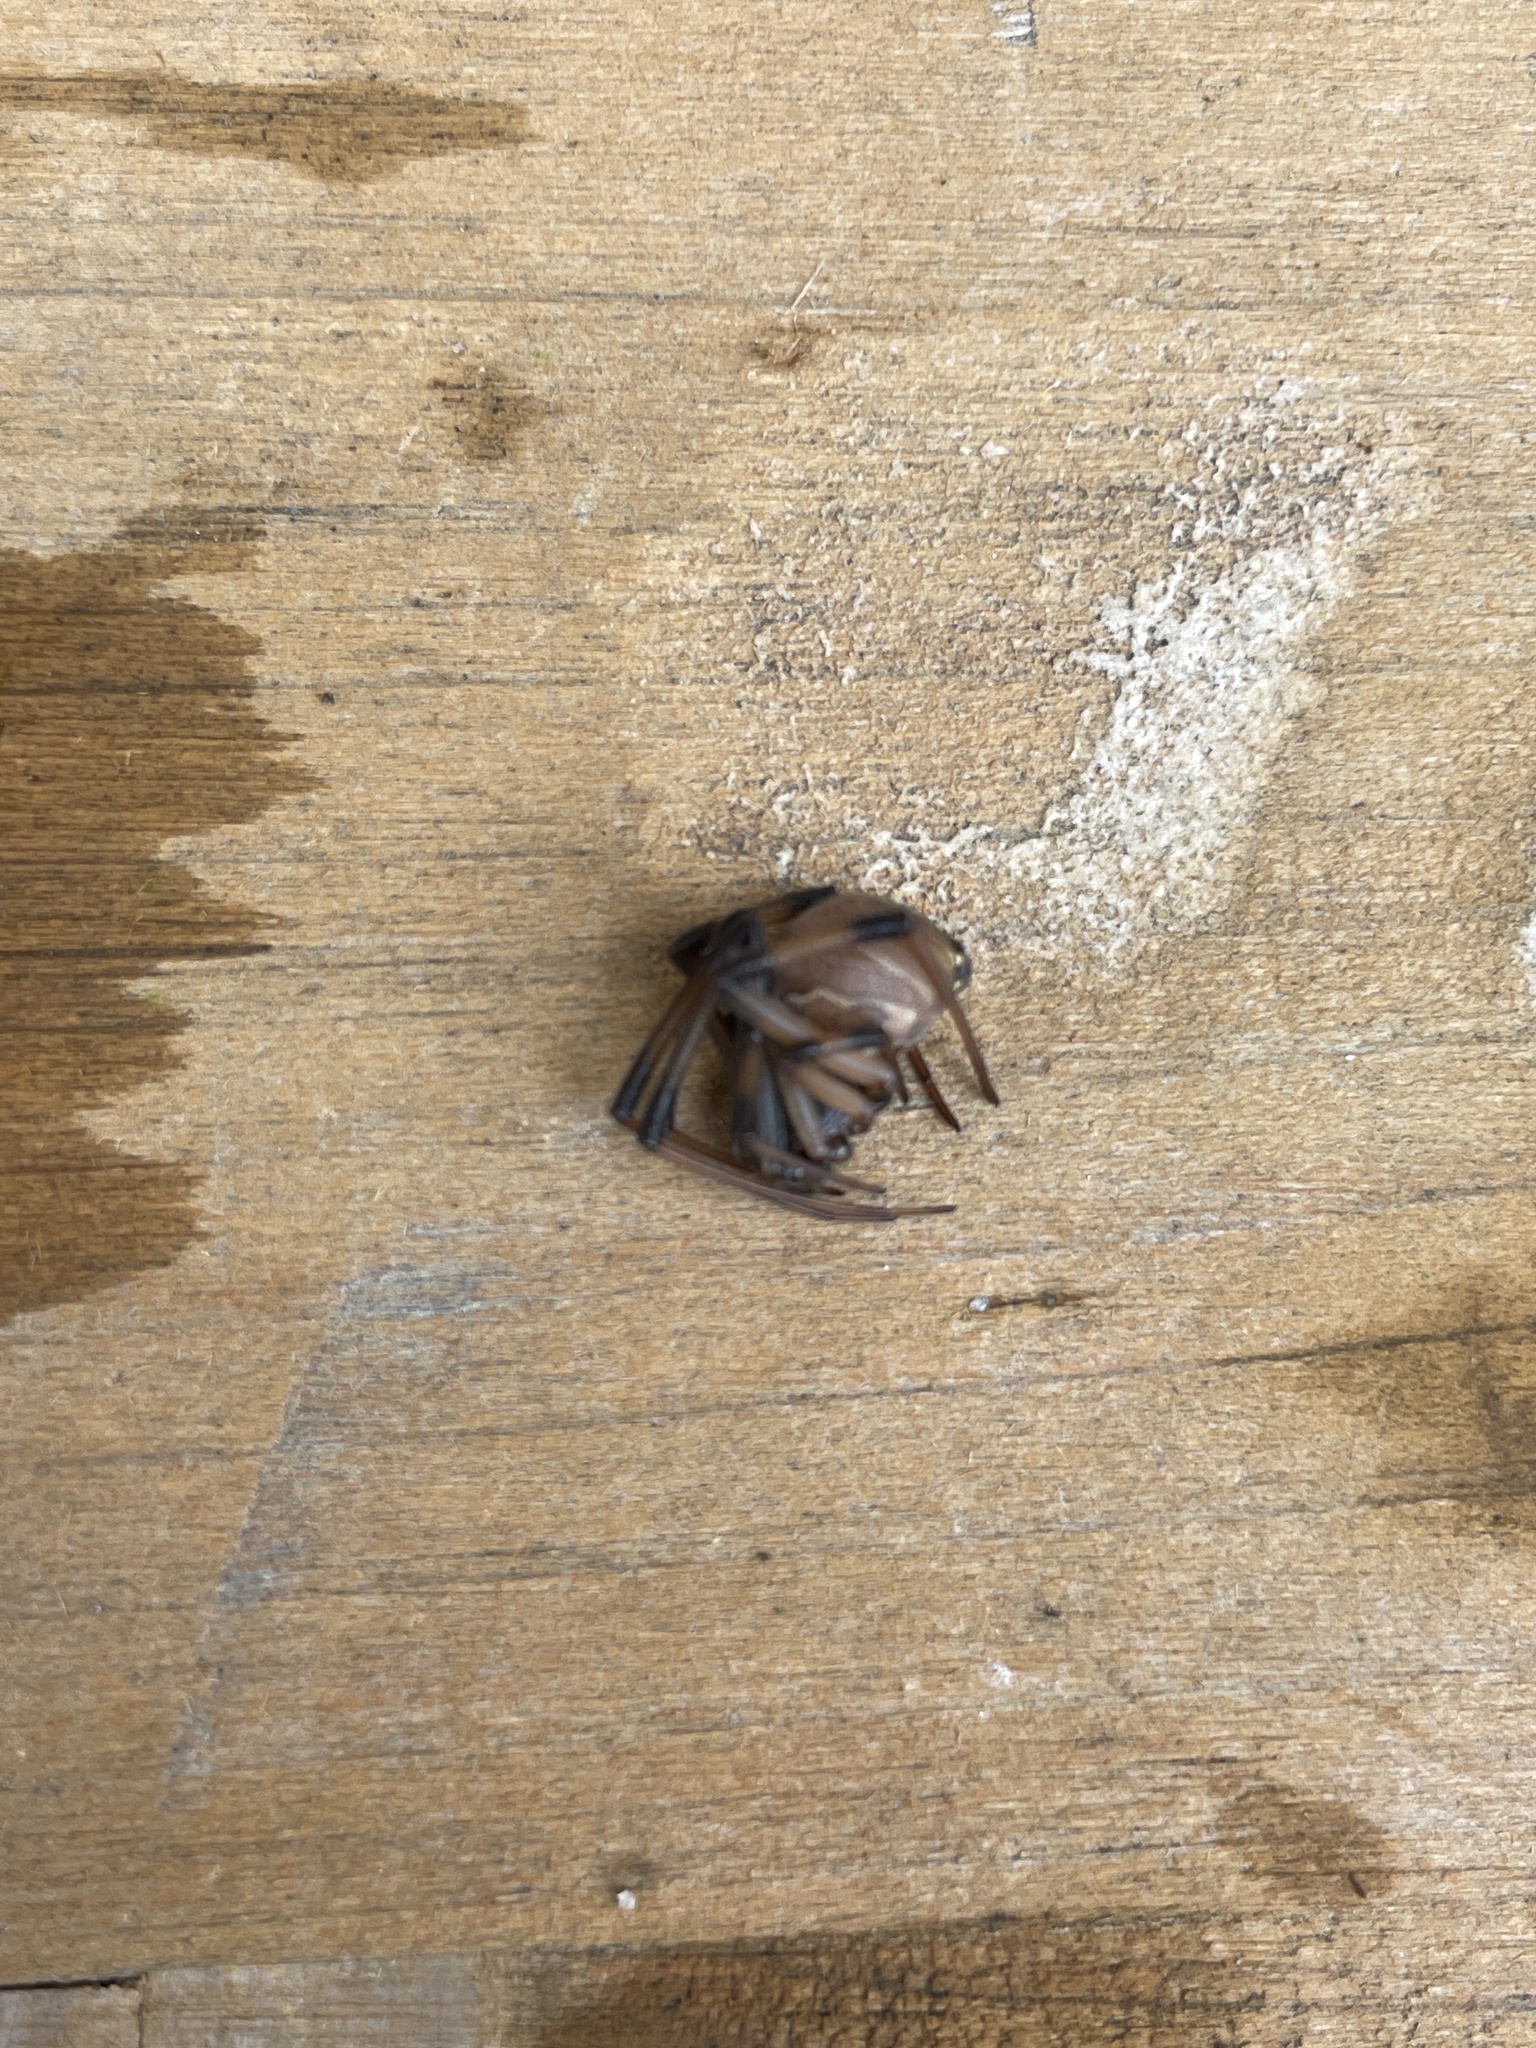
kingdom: Animalia
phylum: Arthropoda
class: Arachnida
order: Araneae
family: Theridiidae
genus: Latrodectus
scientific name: Latrodectus geometricus
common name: Brown widow spider
